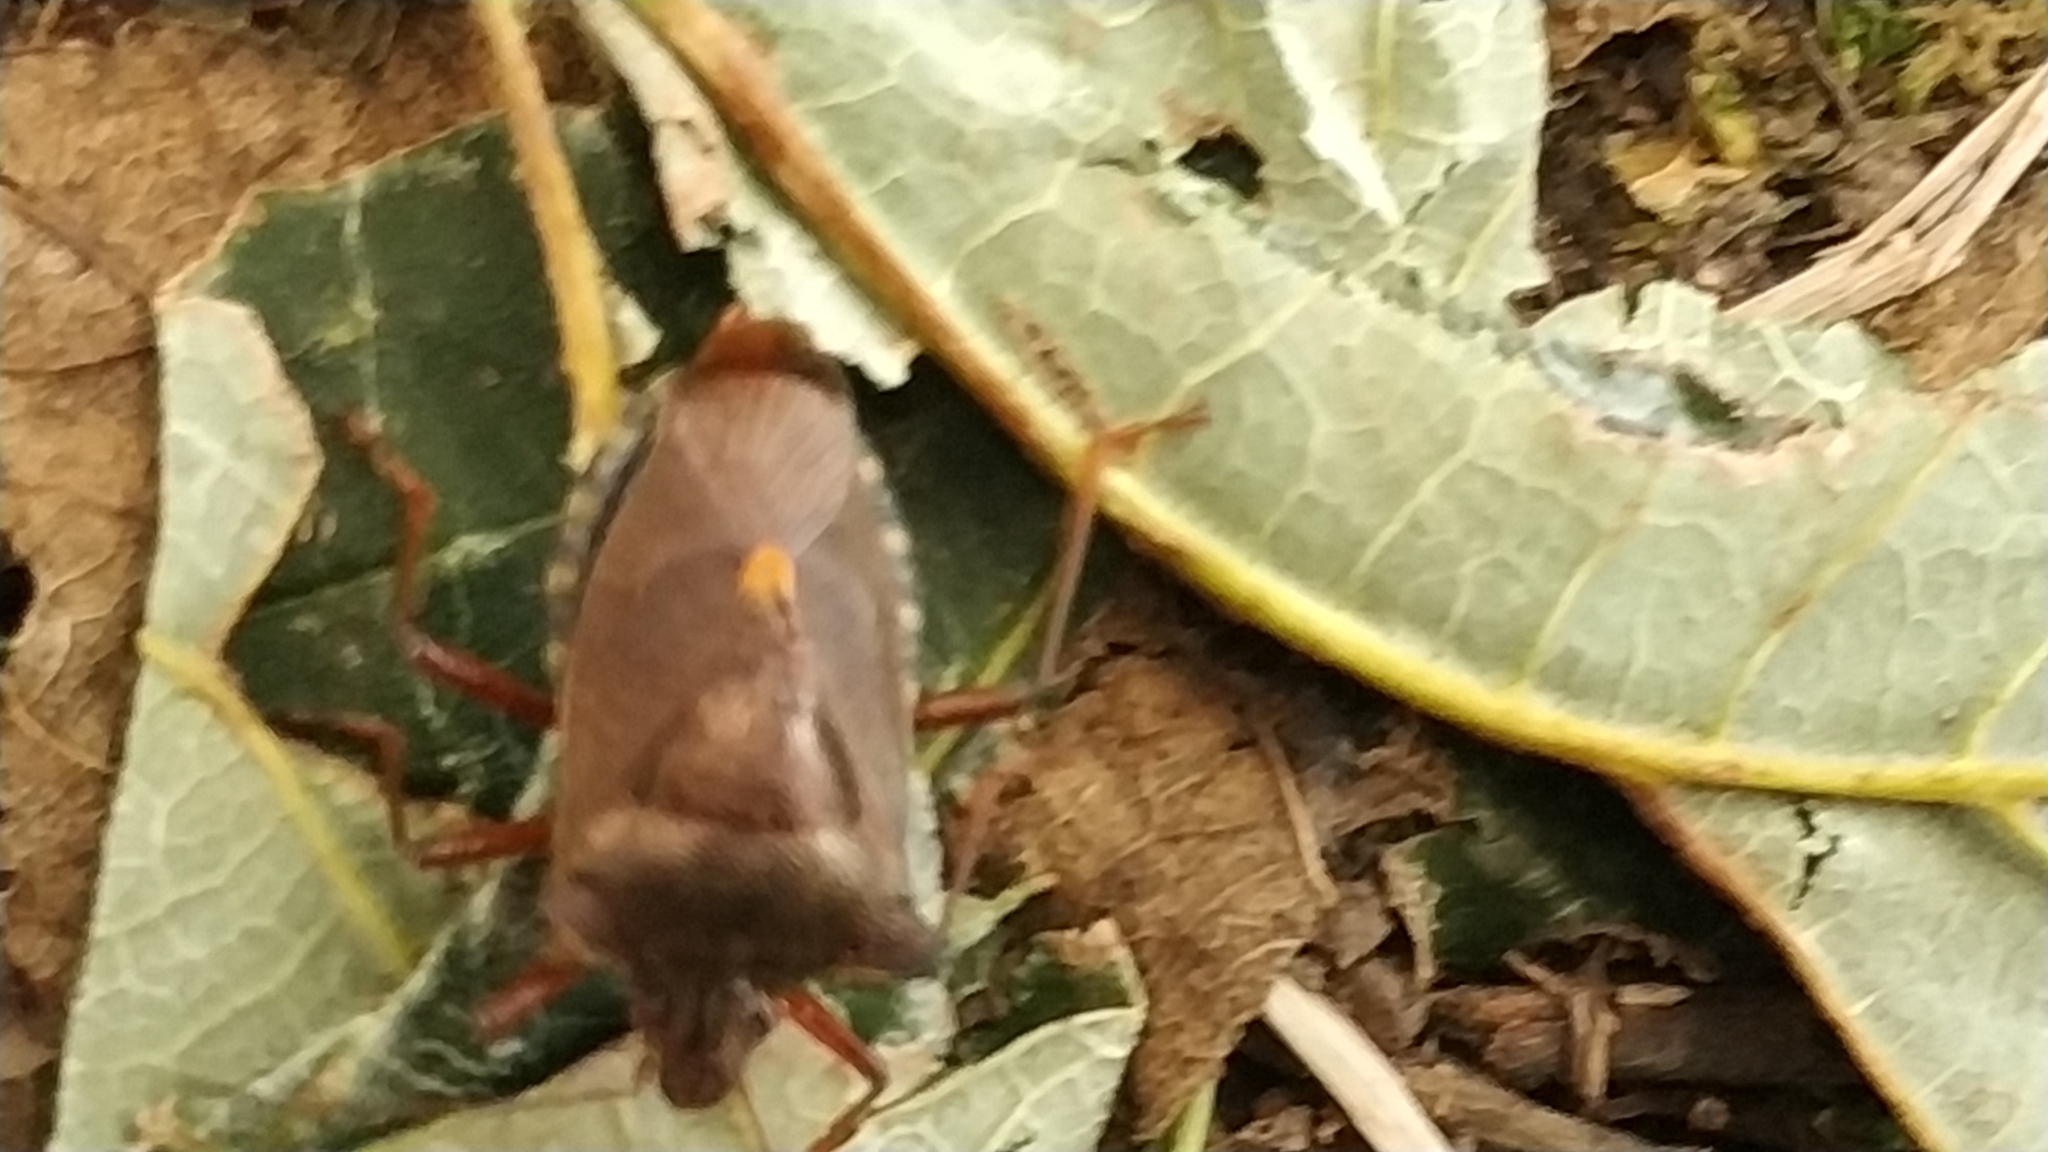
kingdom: Animalia
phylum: Arthropoda
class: Insecta
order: Hemiptera
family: Pentatomidae
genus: Pentatoma
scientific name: Pentatoma rufipes
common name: Forest bug
